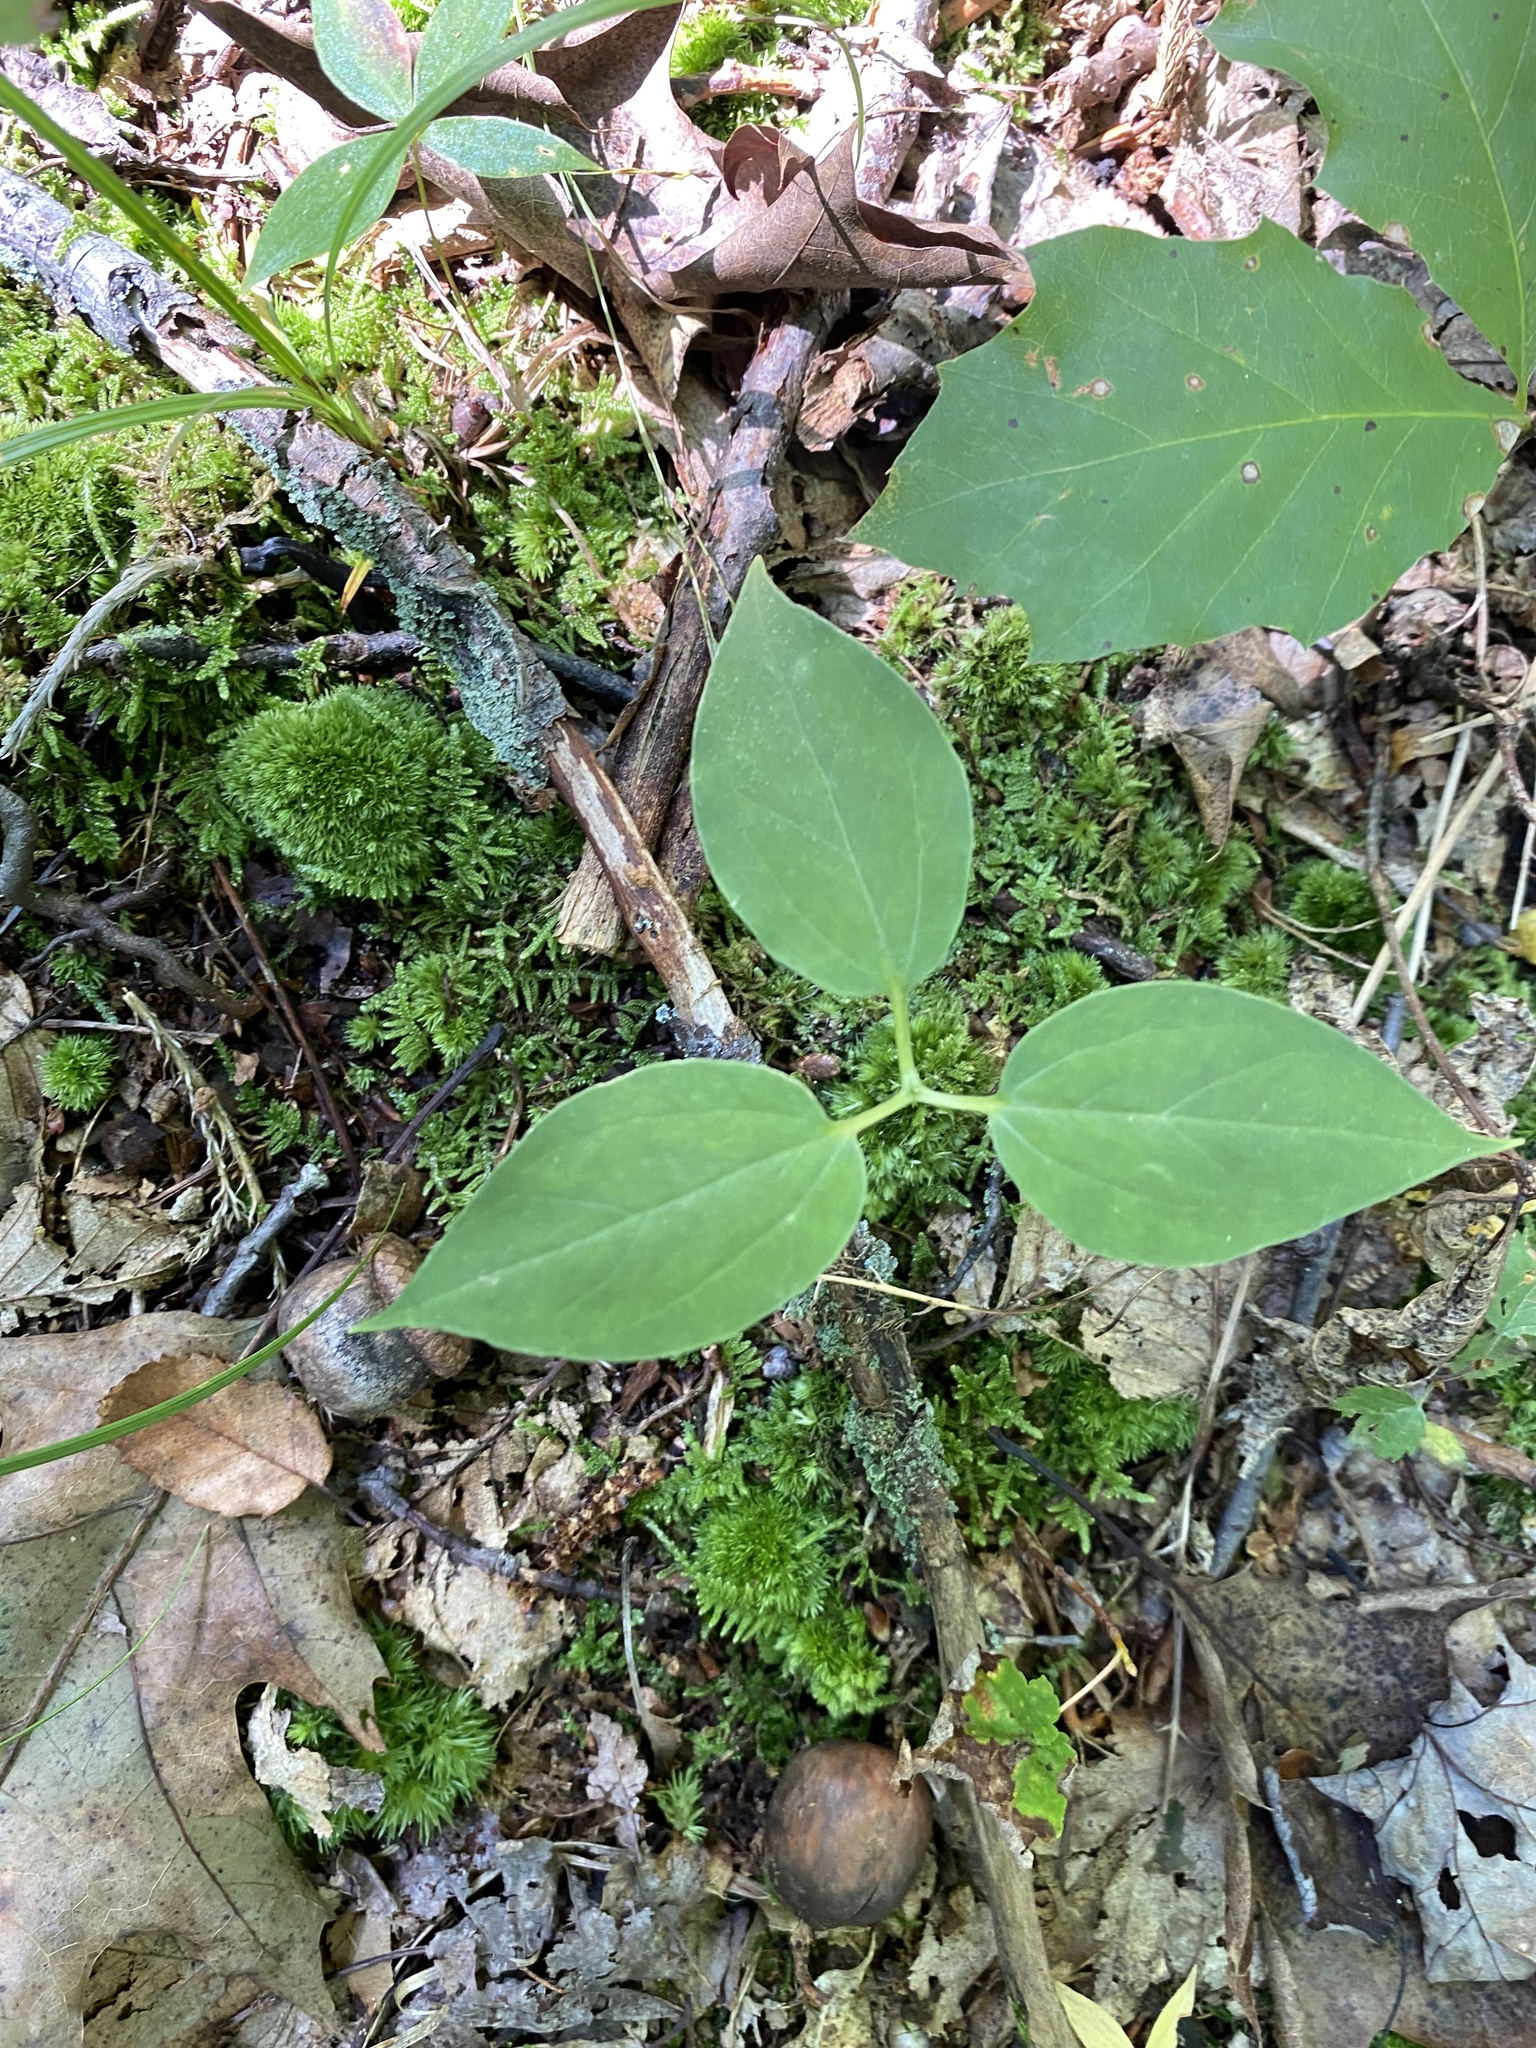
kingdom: Plantae
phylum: Tracheophyta
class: Liliopsida
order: Liliales
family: Melanthiaceae
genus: Trillium
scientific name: Trillium undulatum
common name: Paint trillium
